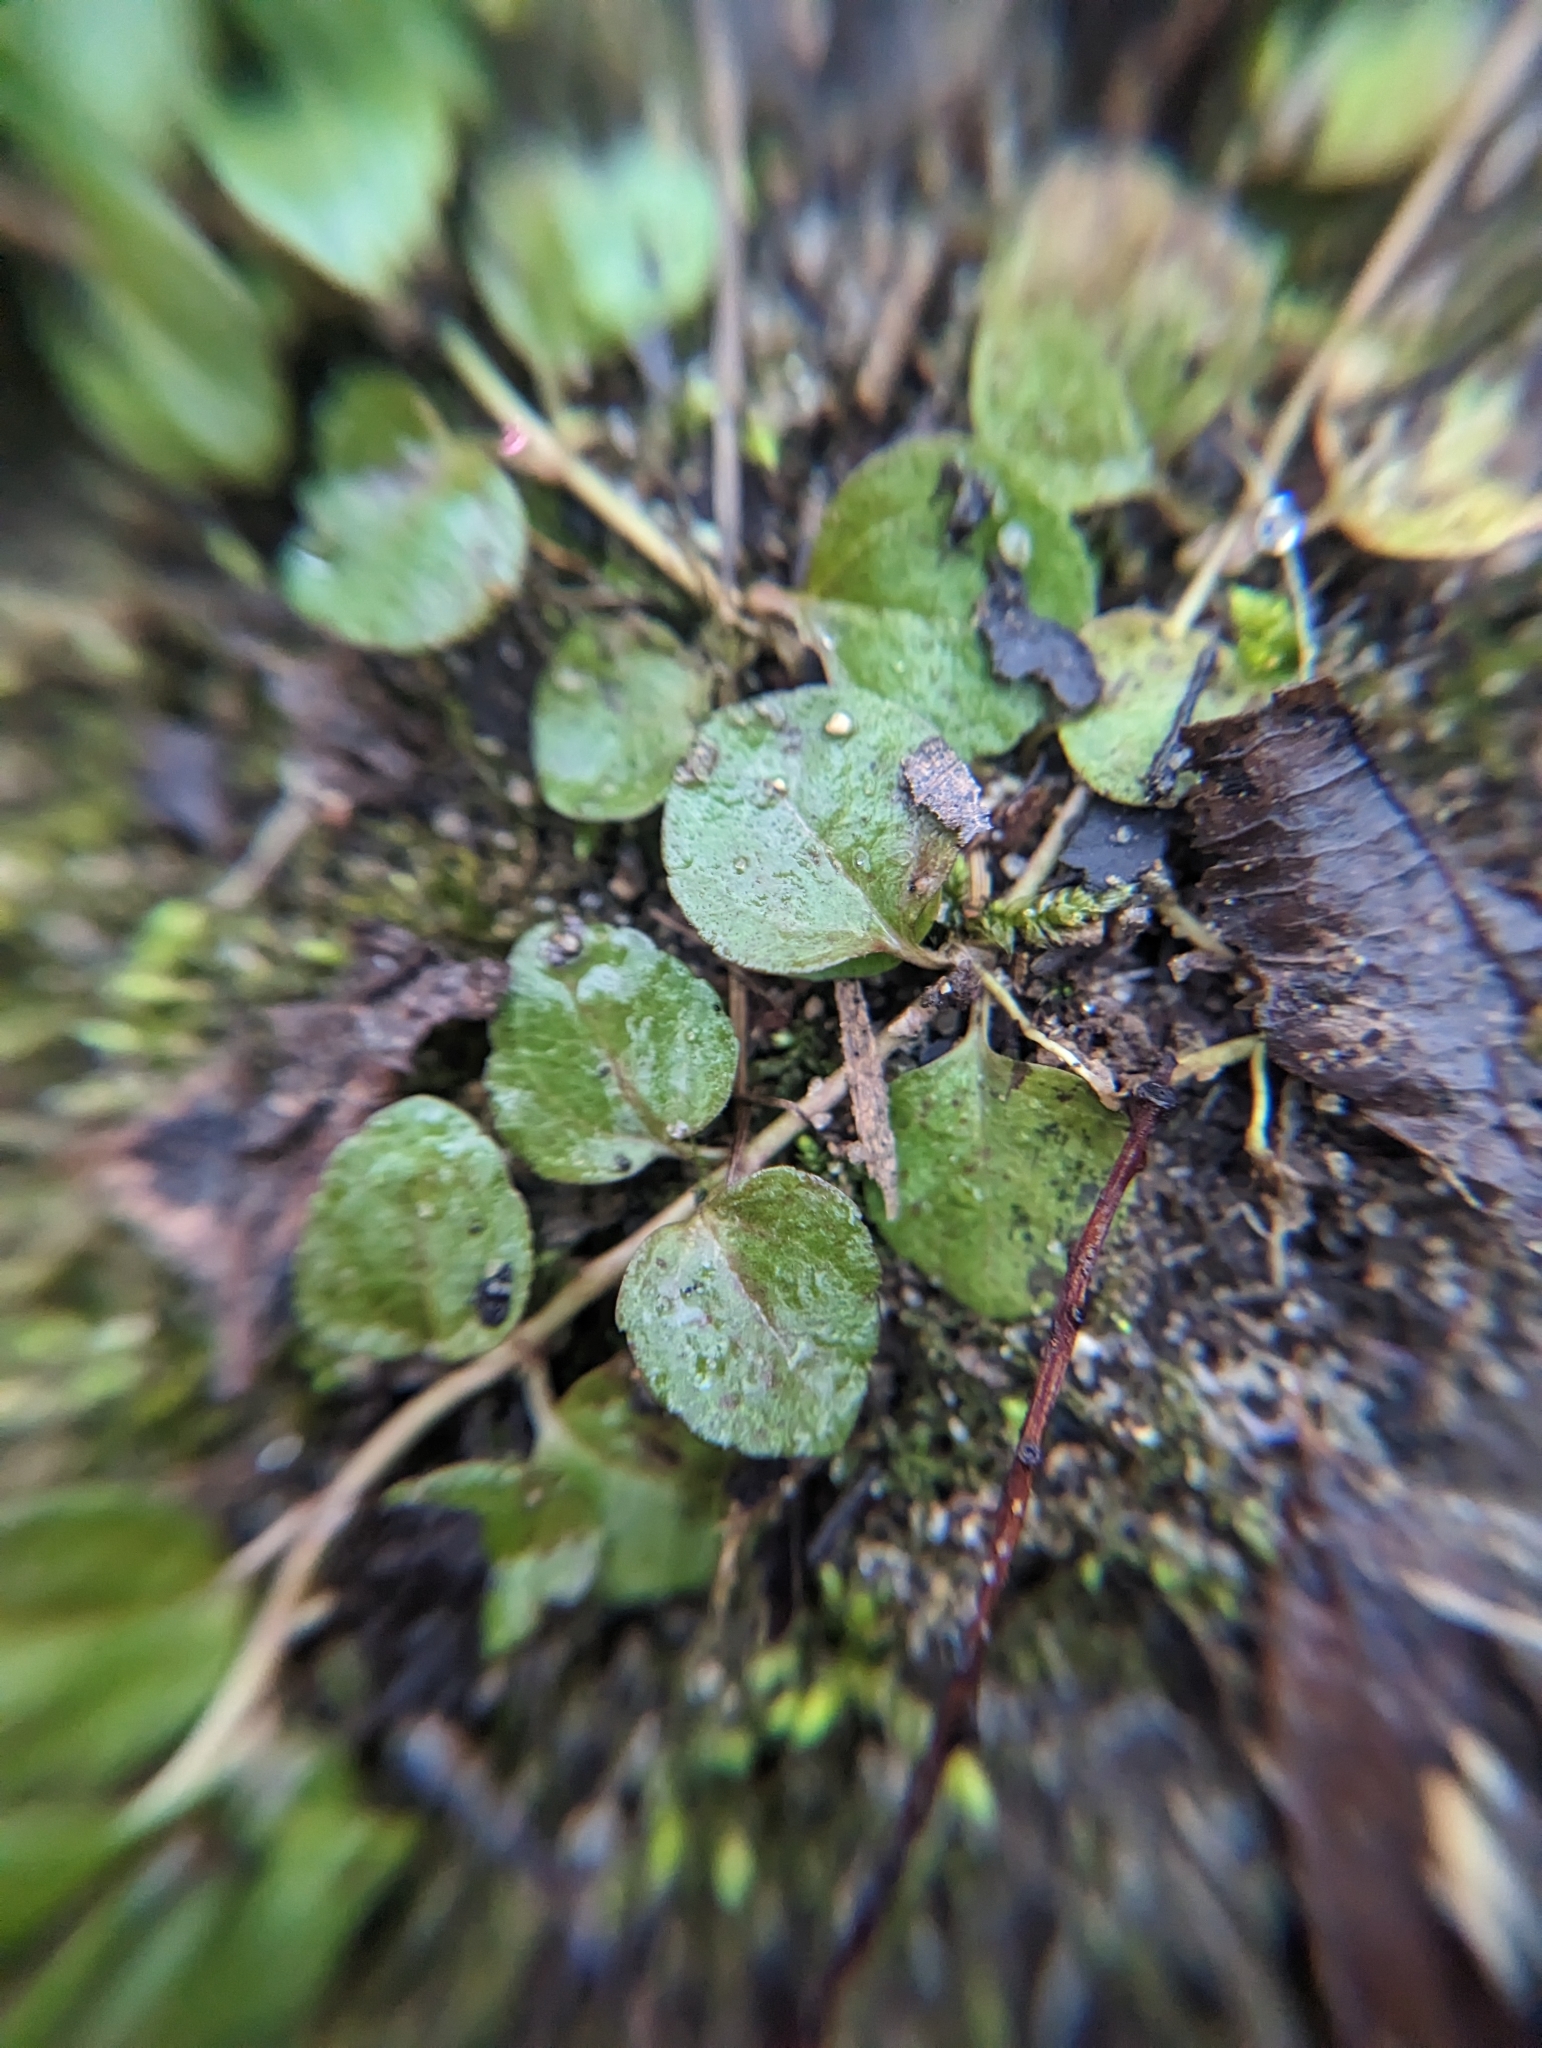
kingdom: Plantae
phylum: Tracheophyta
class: Magnoliopsida
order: Ericales
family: Primulaceae
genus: Lysimachia
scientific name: Lysimachia nummularia
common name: Moneywort
